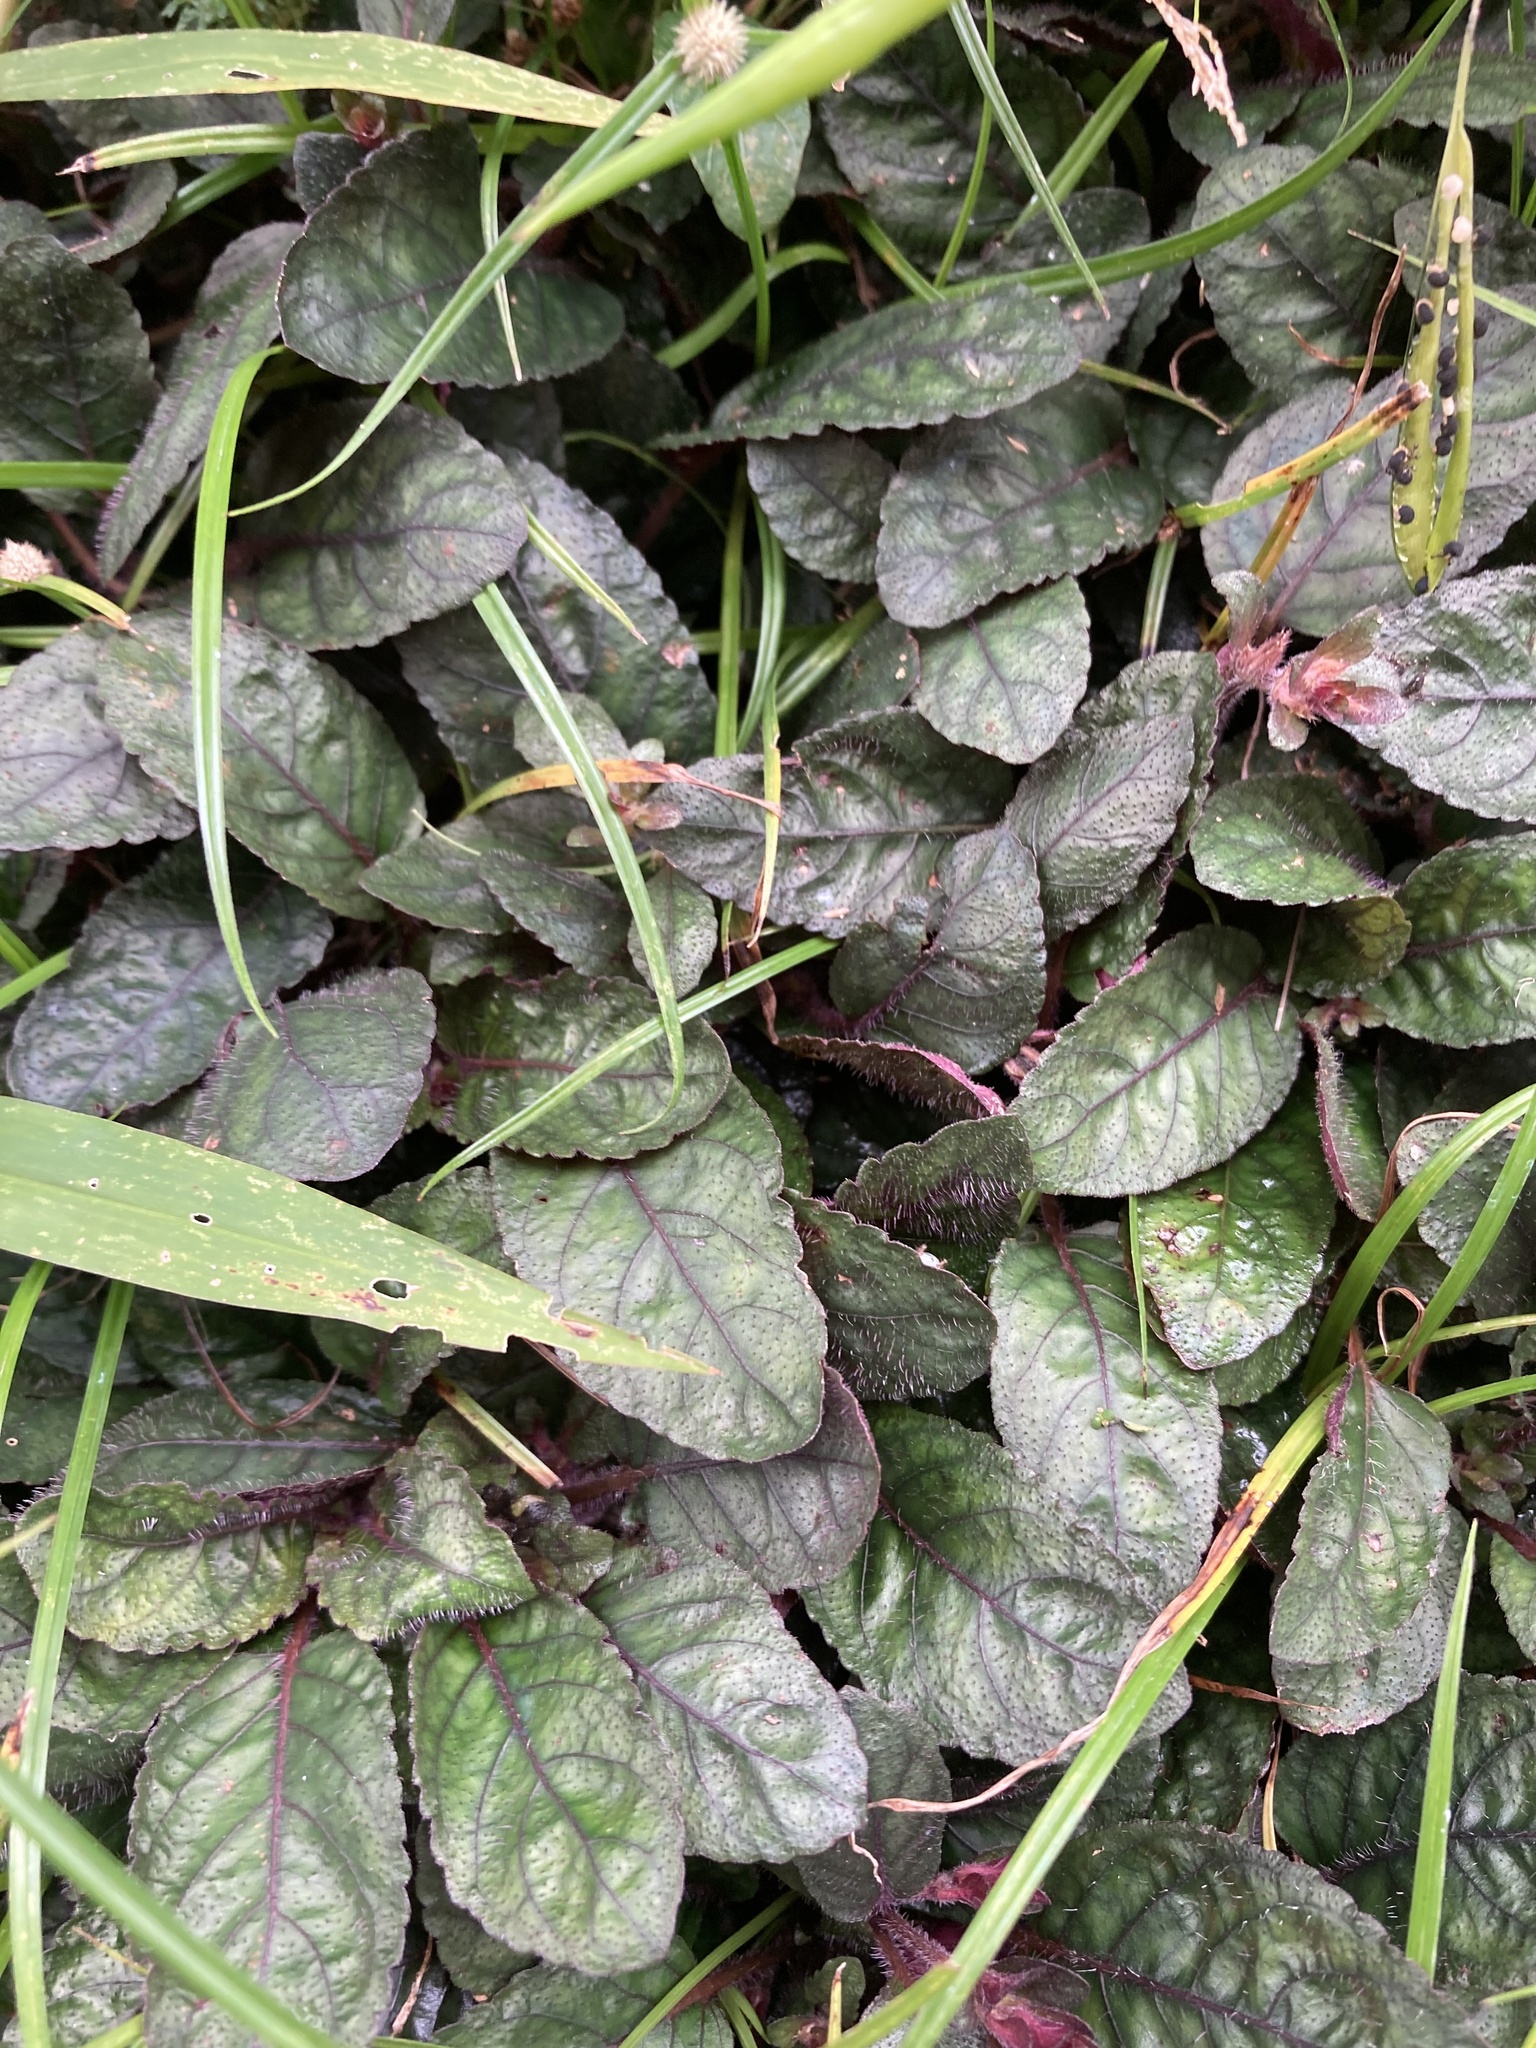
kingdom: Plantae
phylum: Tracheophyta
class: Magnoliopsida
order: Lamiales
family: Acanthaceae
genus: Strobilanthes
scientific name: Strobilanthes reptans
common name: Acanthaceae
